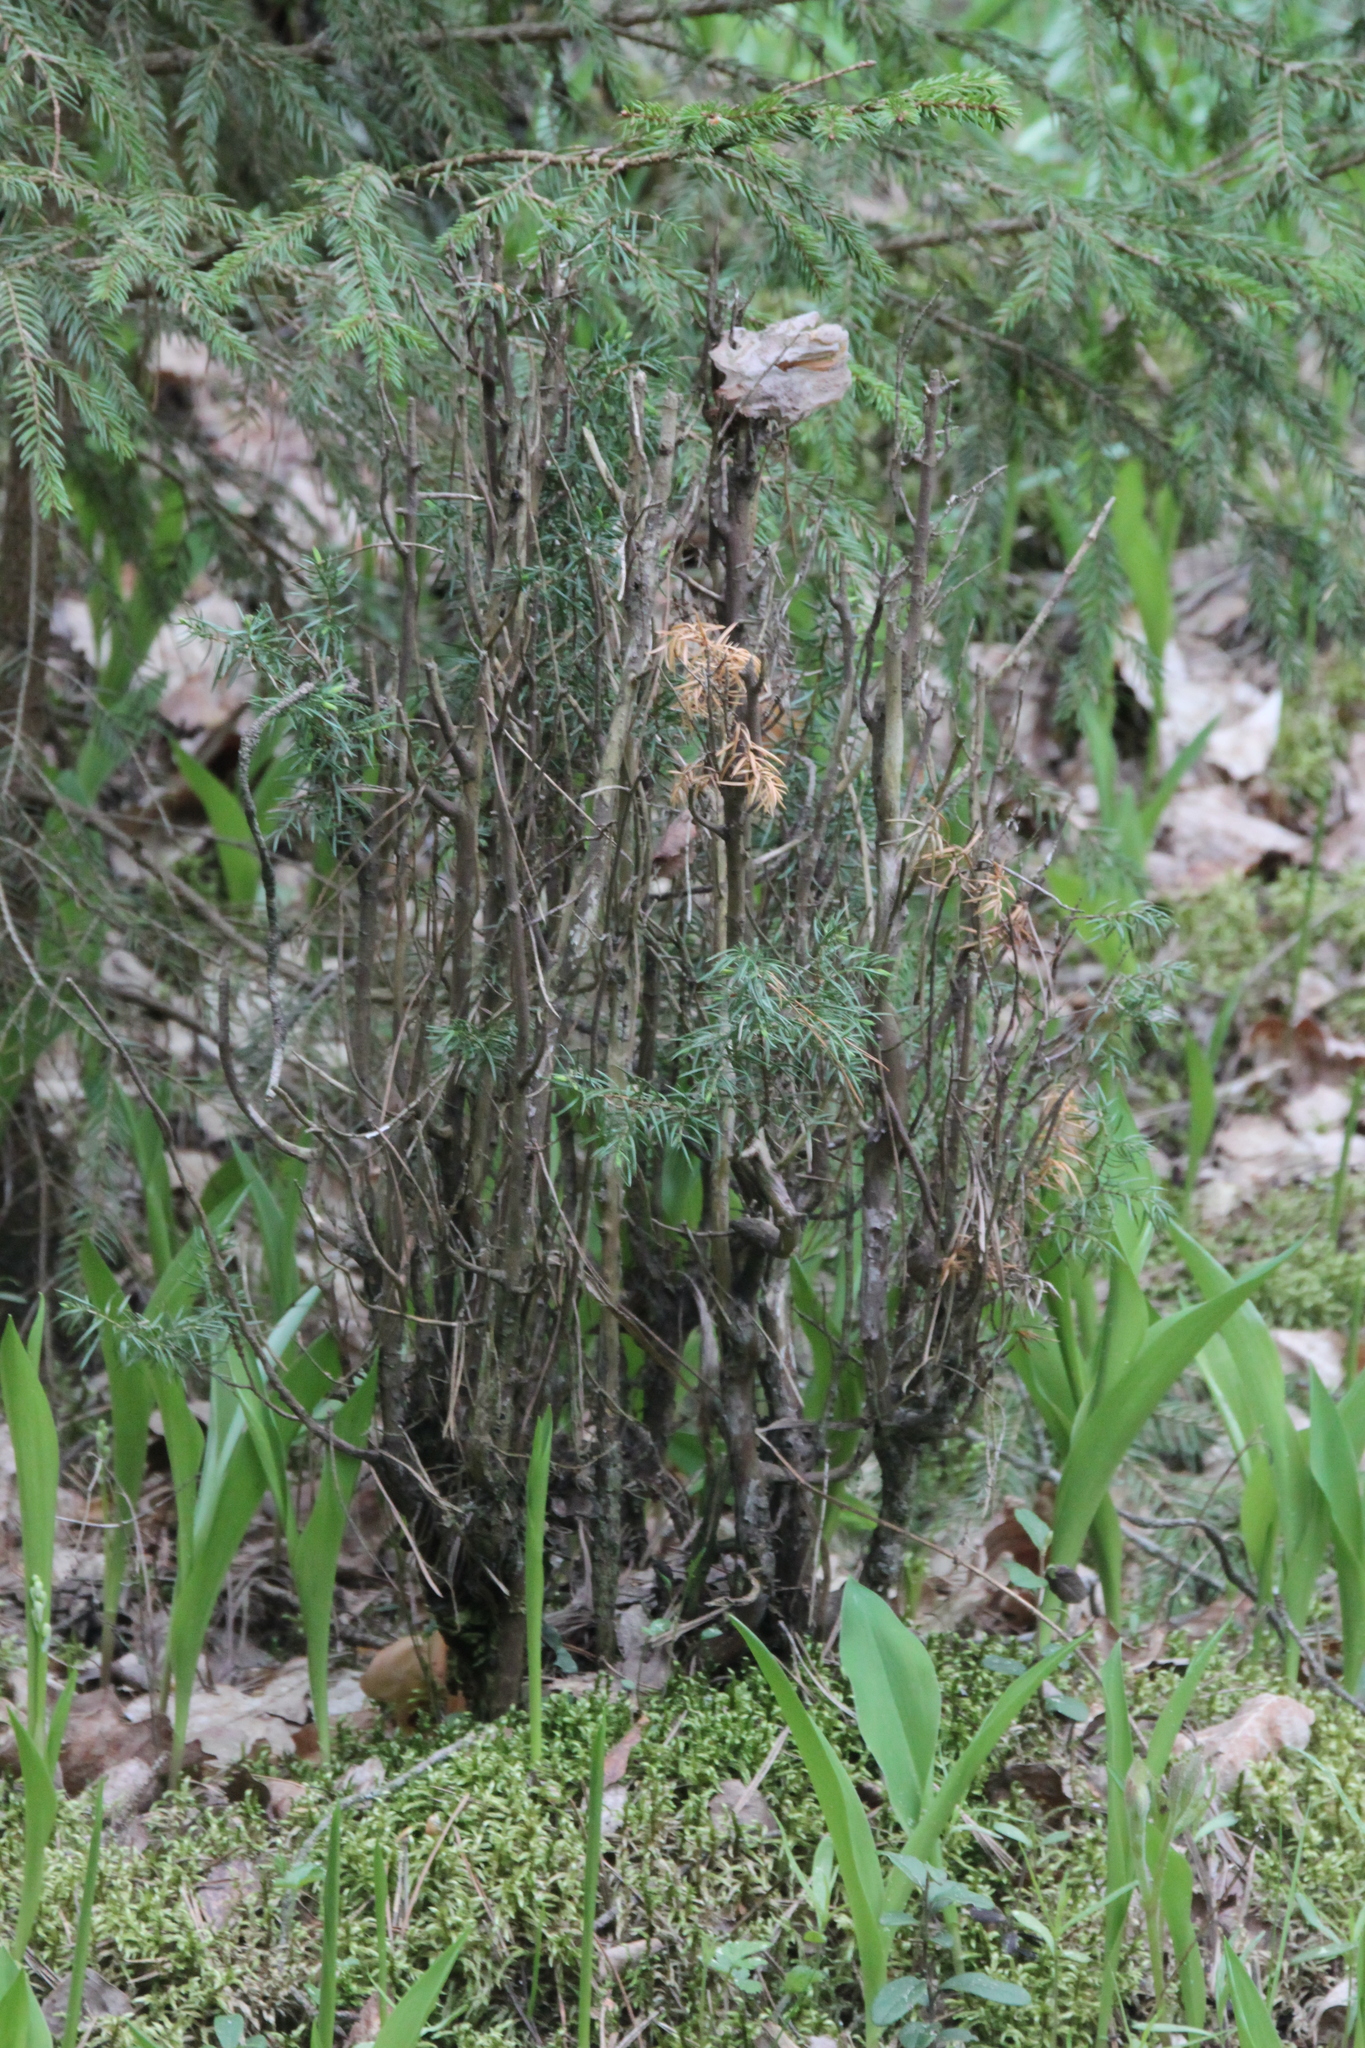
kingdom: Plantae
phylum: Tracheophyta
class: Pinopsida
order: Pinales
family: Cupressaceae
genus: Juniperus
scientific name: Juniperus communis
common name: Common juniper
